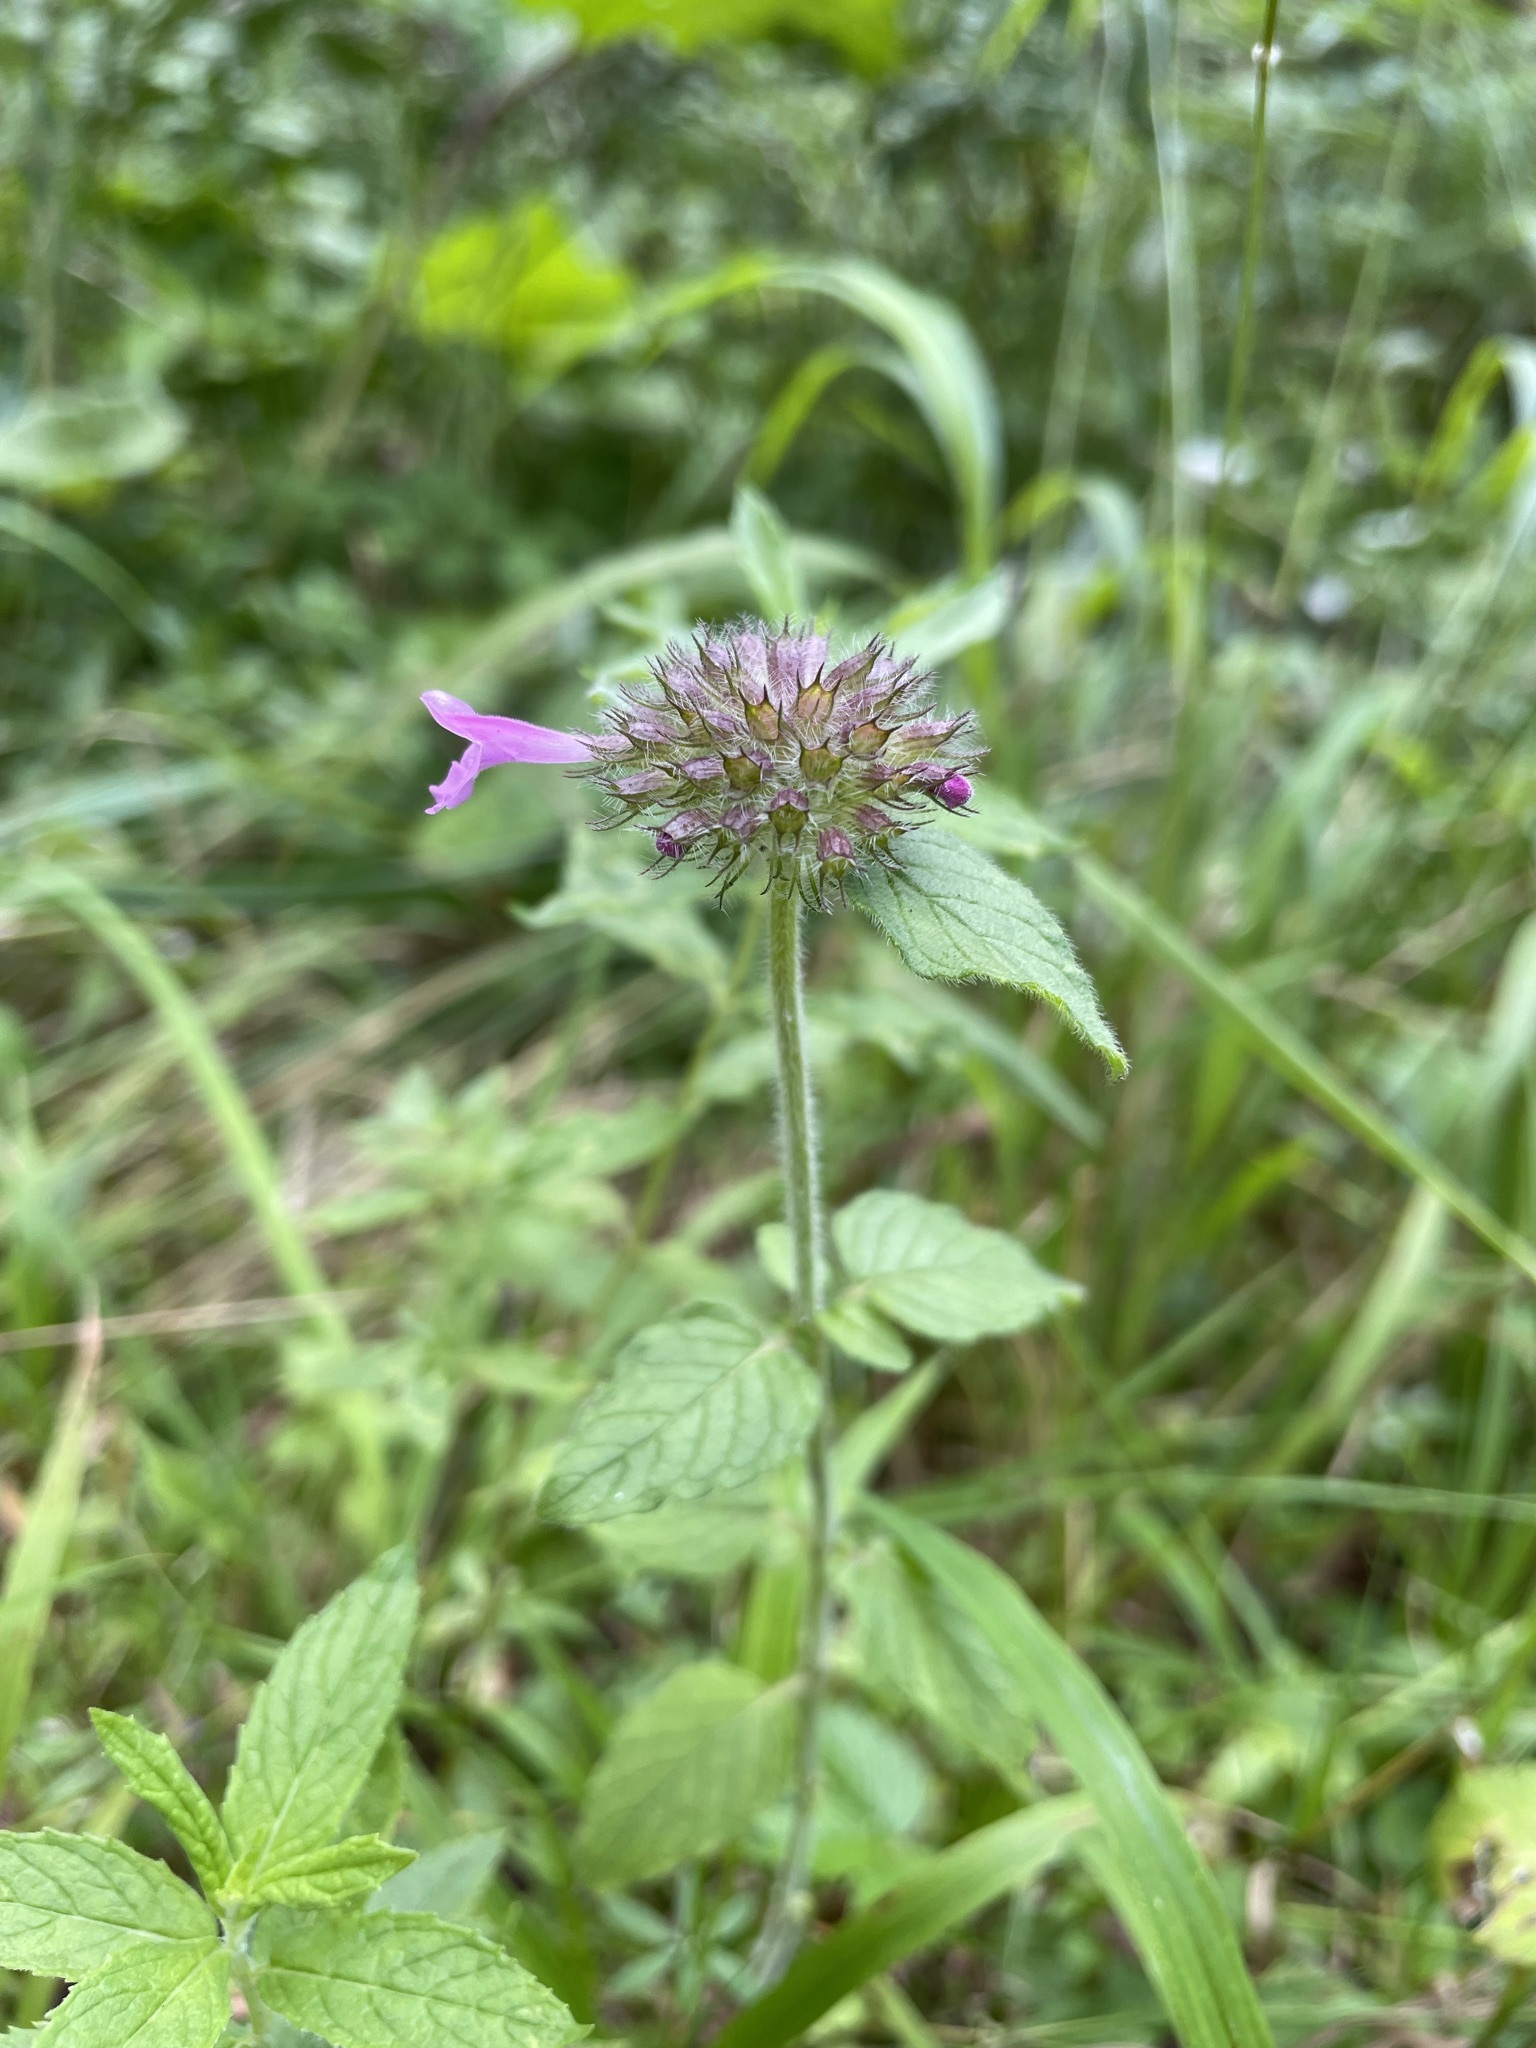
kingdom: Plantae
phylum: Tracheophyta
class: Magnoliopsida
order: Lamiales
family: Lamiaceae
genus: Clinopodium
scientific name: Clinopodium vulgare
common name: Wild basil
